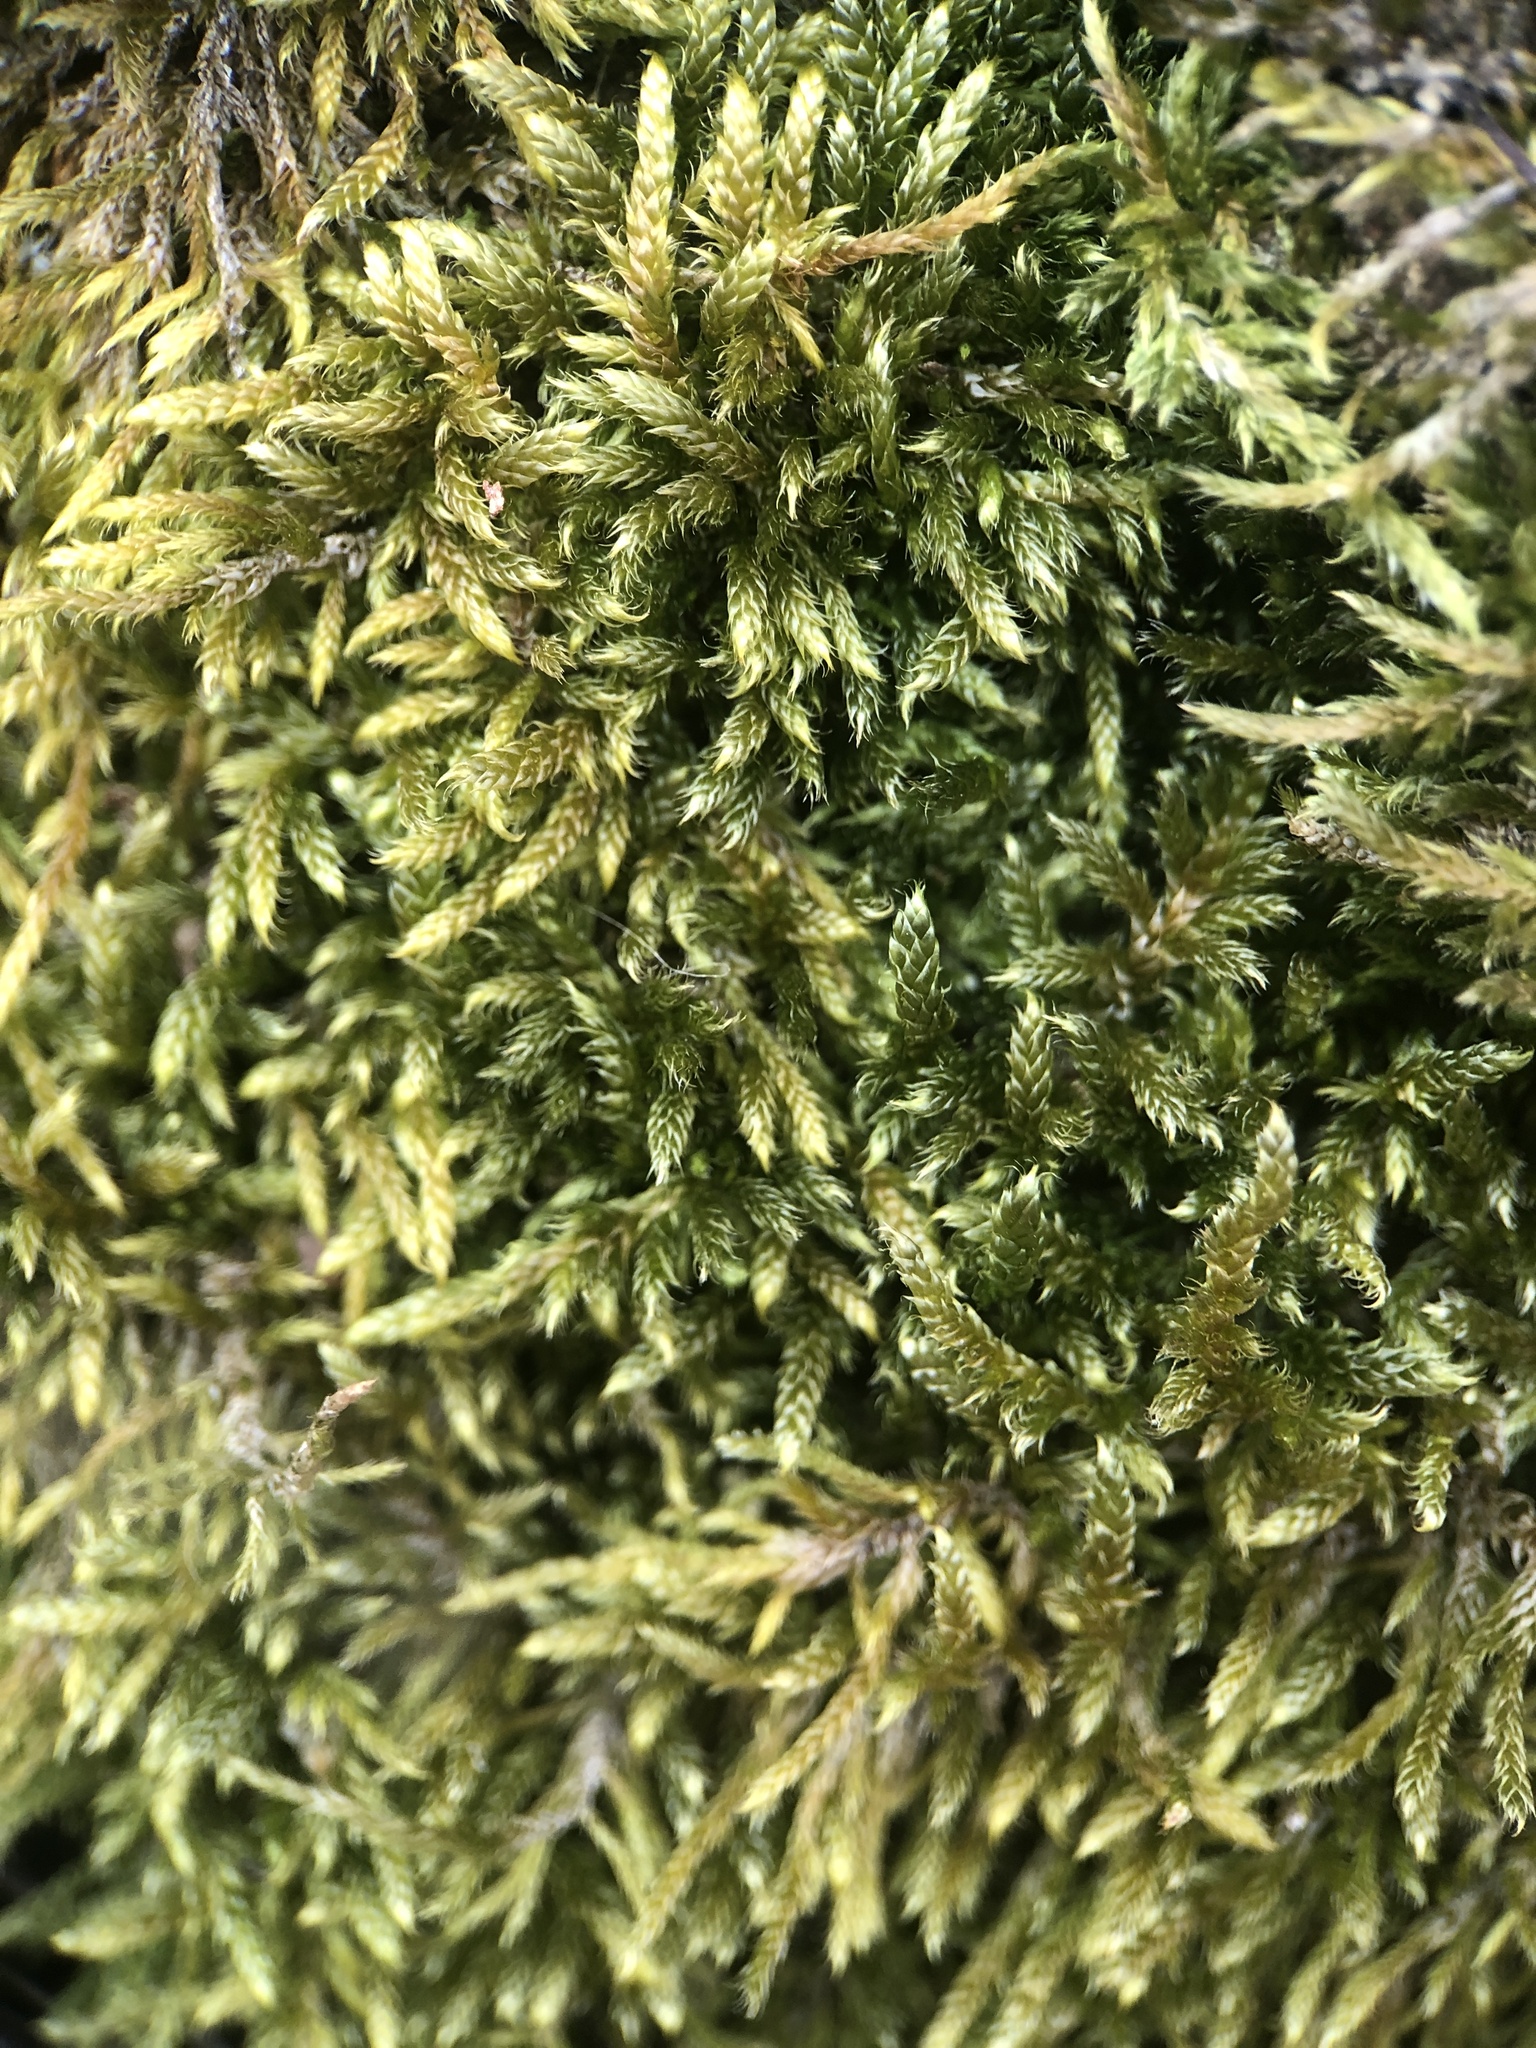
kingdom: Plantae
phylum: Bryophyta
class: Bryopsida
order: Hypnales
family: Hypnaceae
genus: Hypnum
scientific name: Hypnum cupressiforme
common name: Cypress-leaved plait-moss
